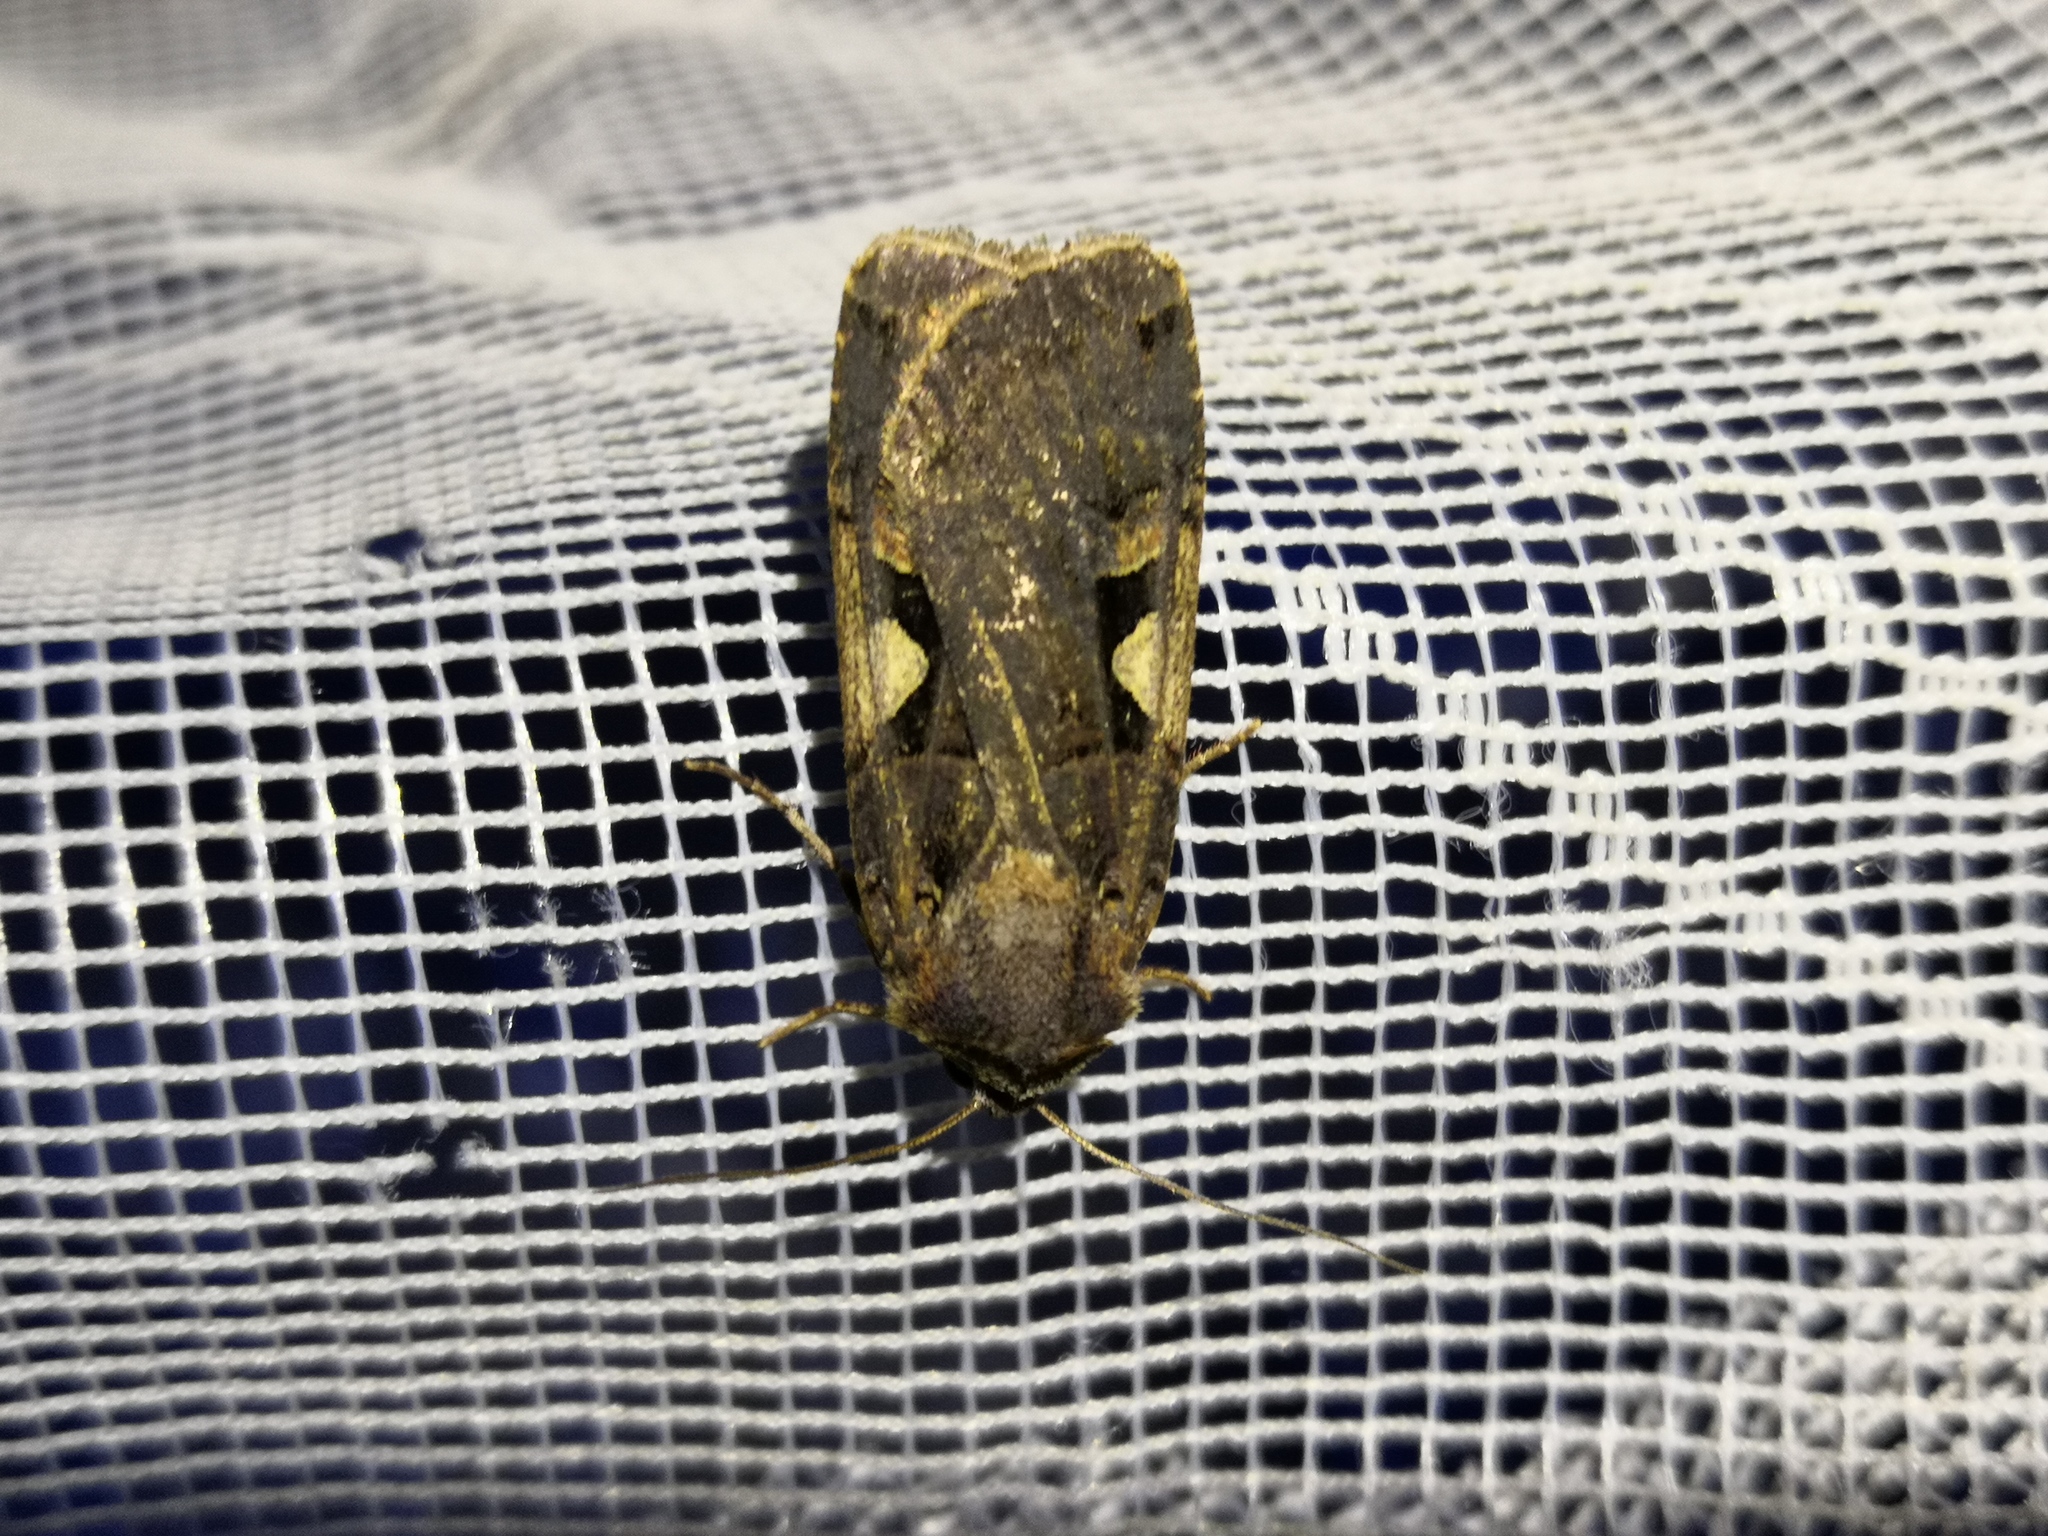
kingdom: Animalia
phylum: Arthropoda
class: Insecta
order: Lepidoptera
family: Noctuidae
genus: Xestia
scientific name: Xestia c-nigrum
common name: Setaceous hebrew character
